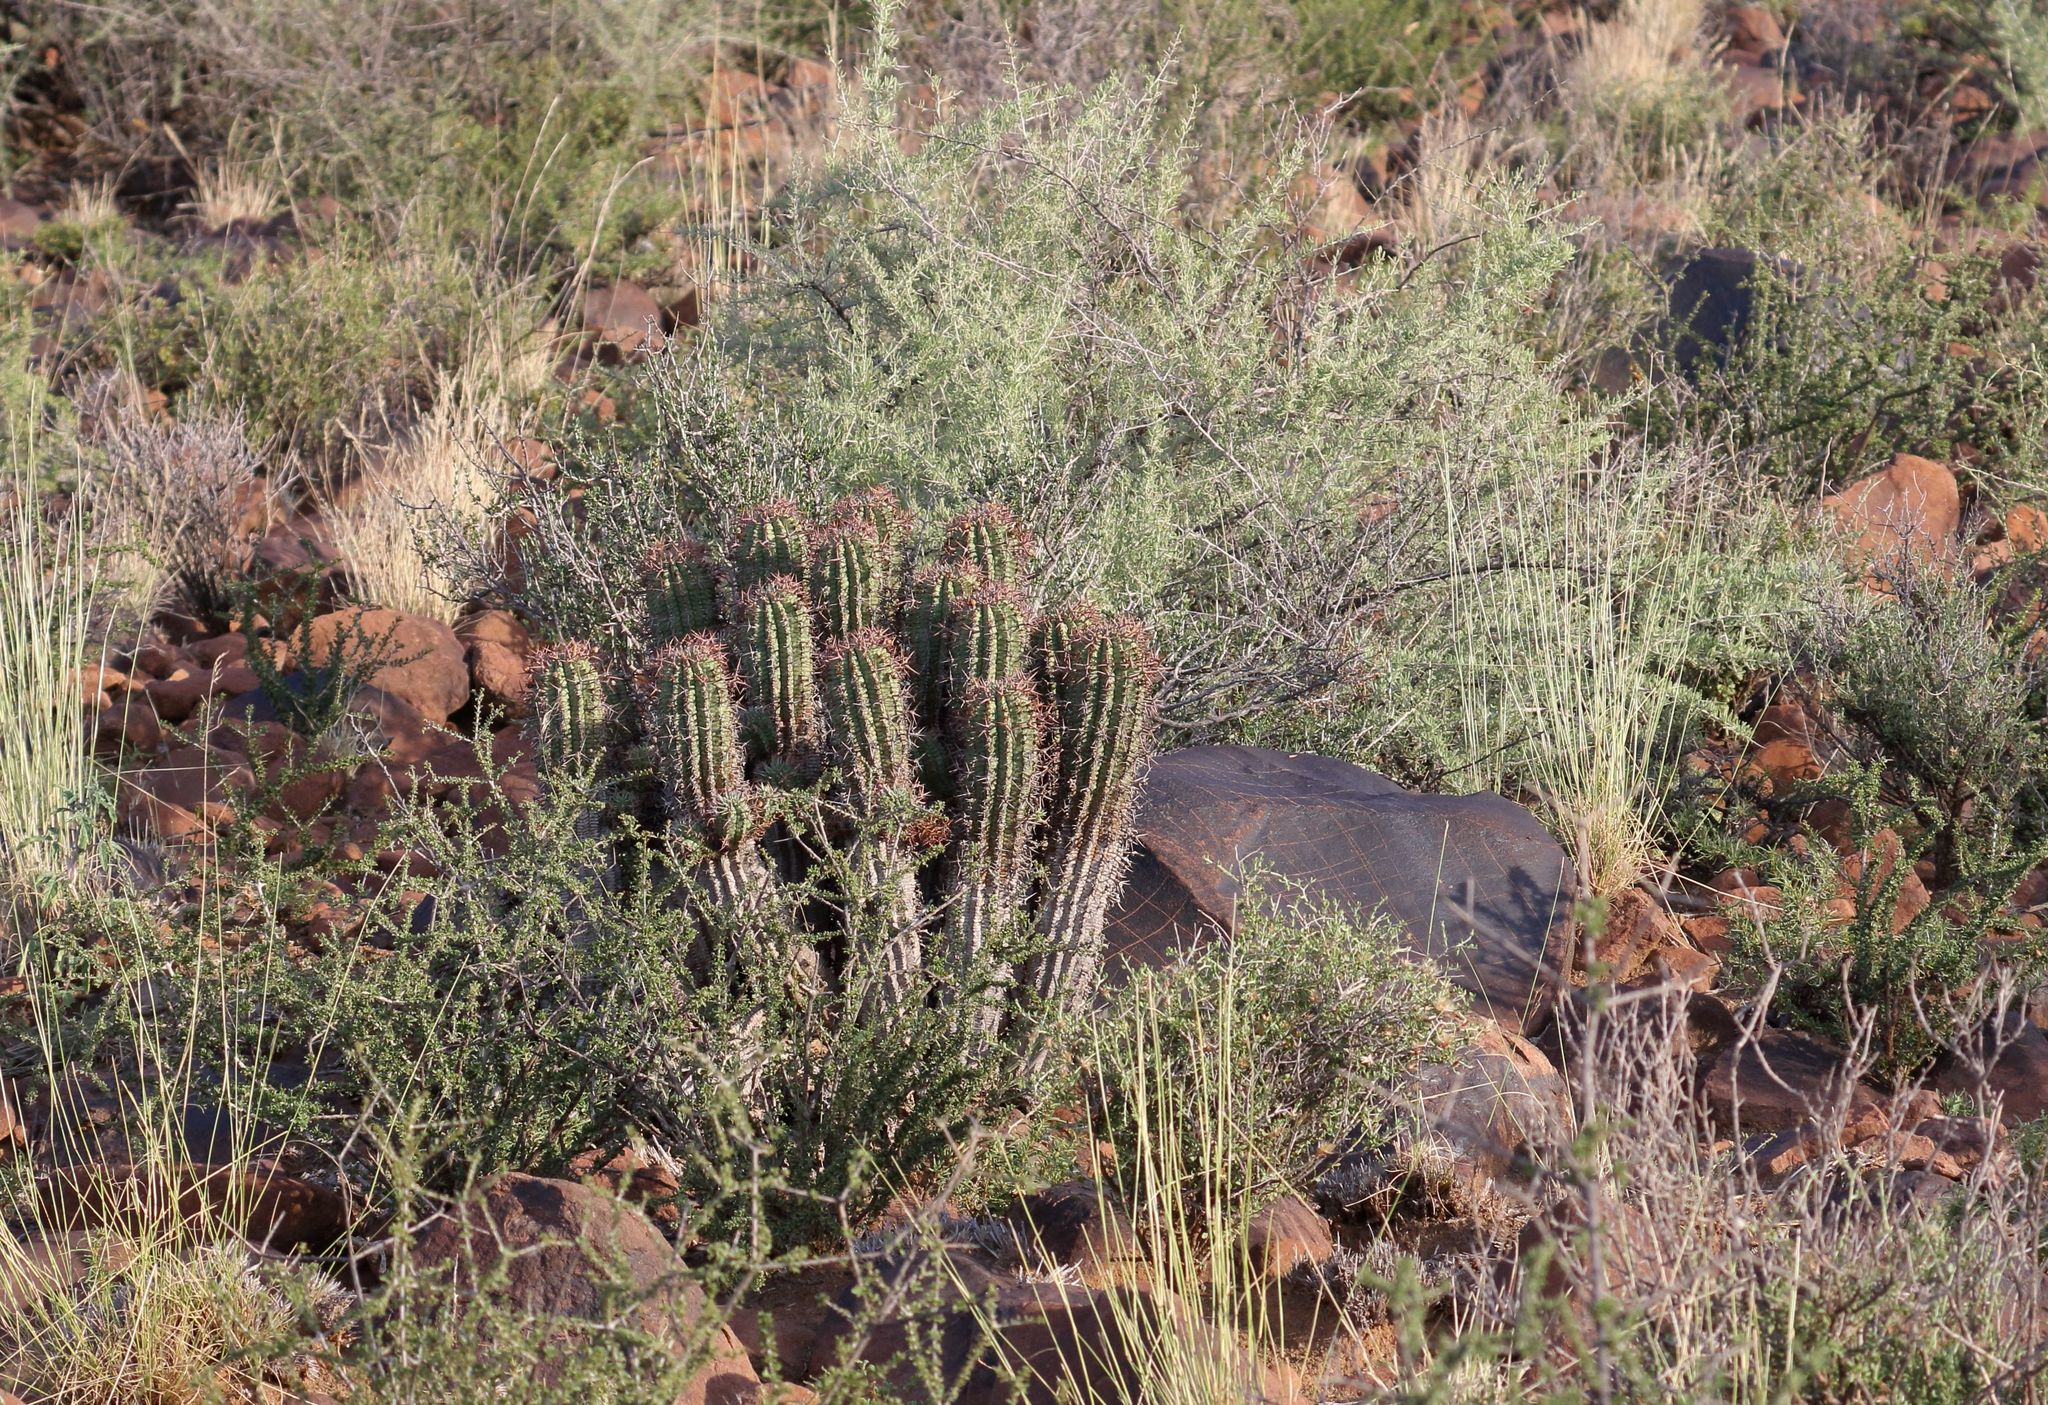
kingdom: Plantae
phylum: Tracheophyta
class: Magnoliopsida
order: Malpighiales
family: Euphorbiaceae
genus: Euphorbia
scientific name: Euphorbia stellispina
